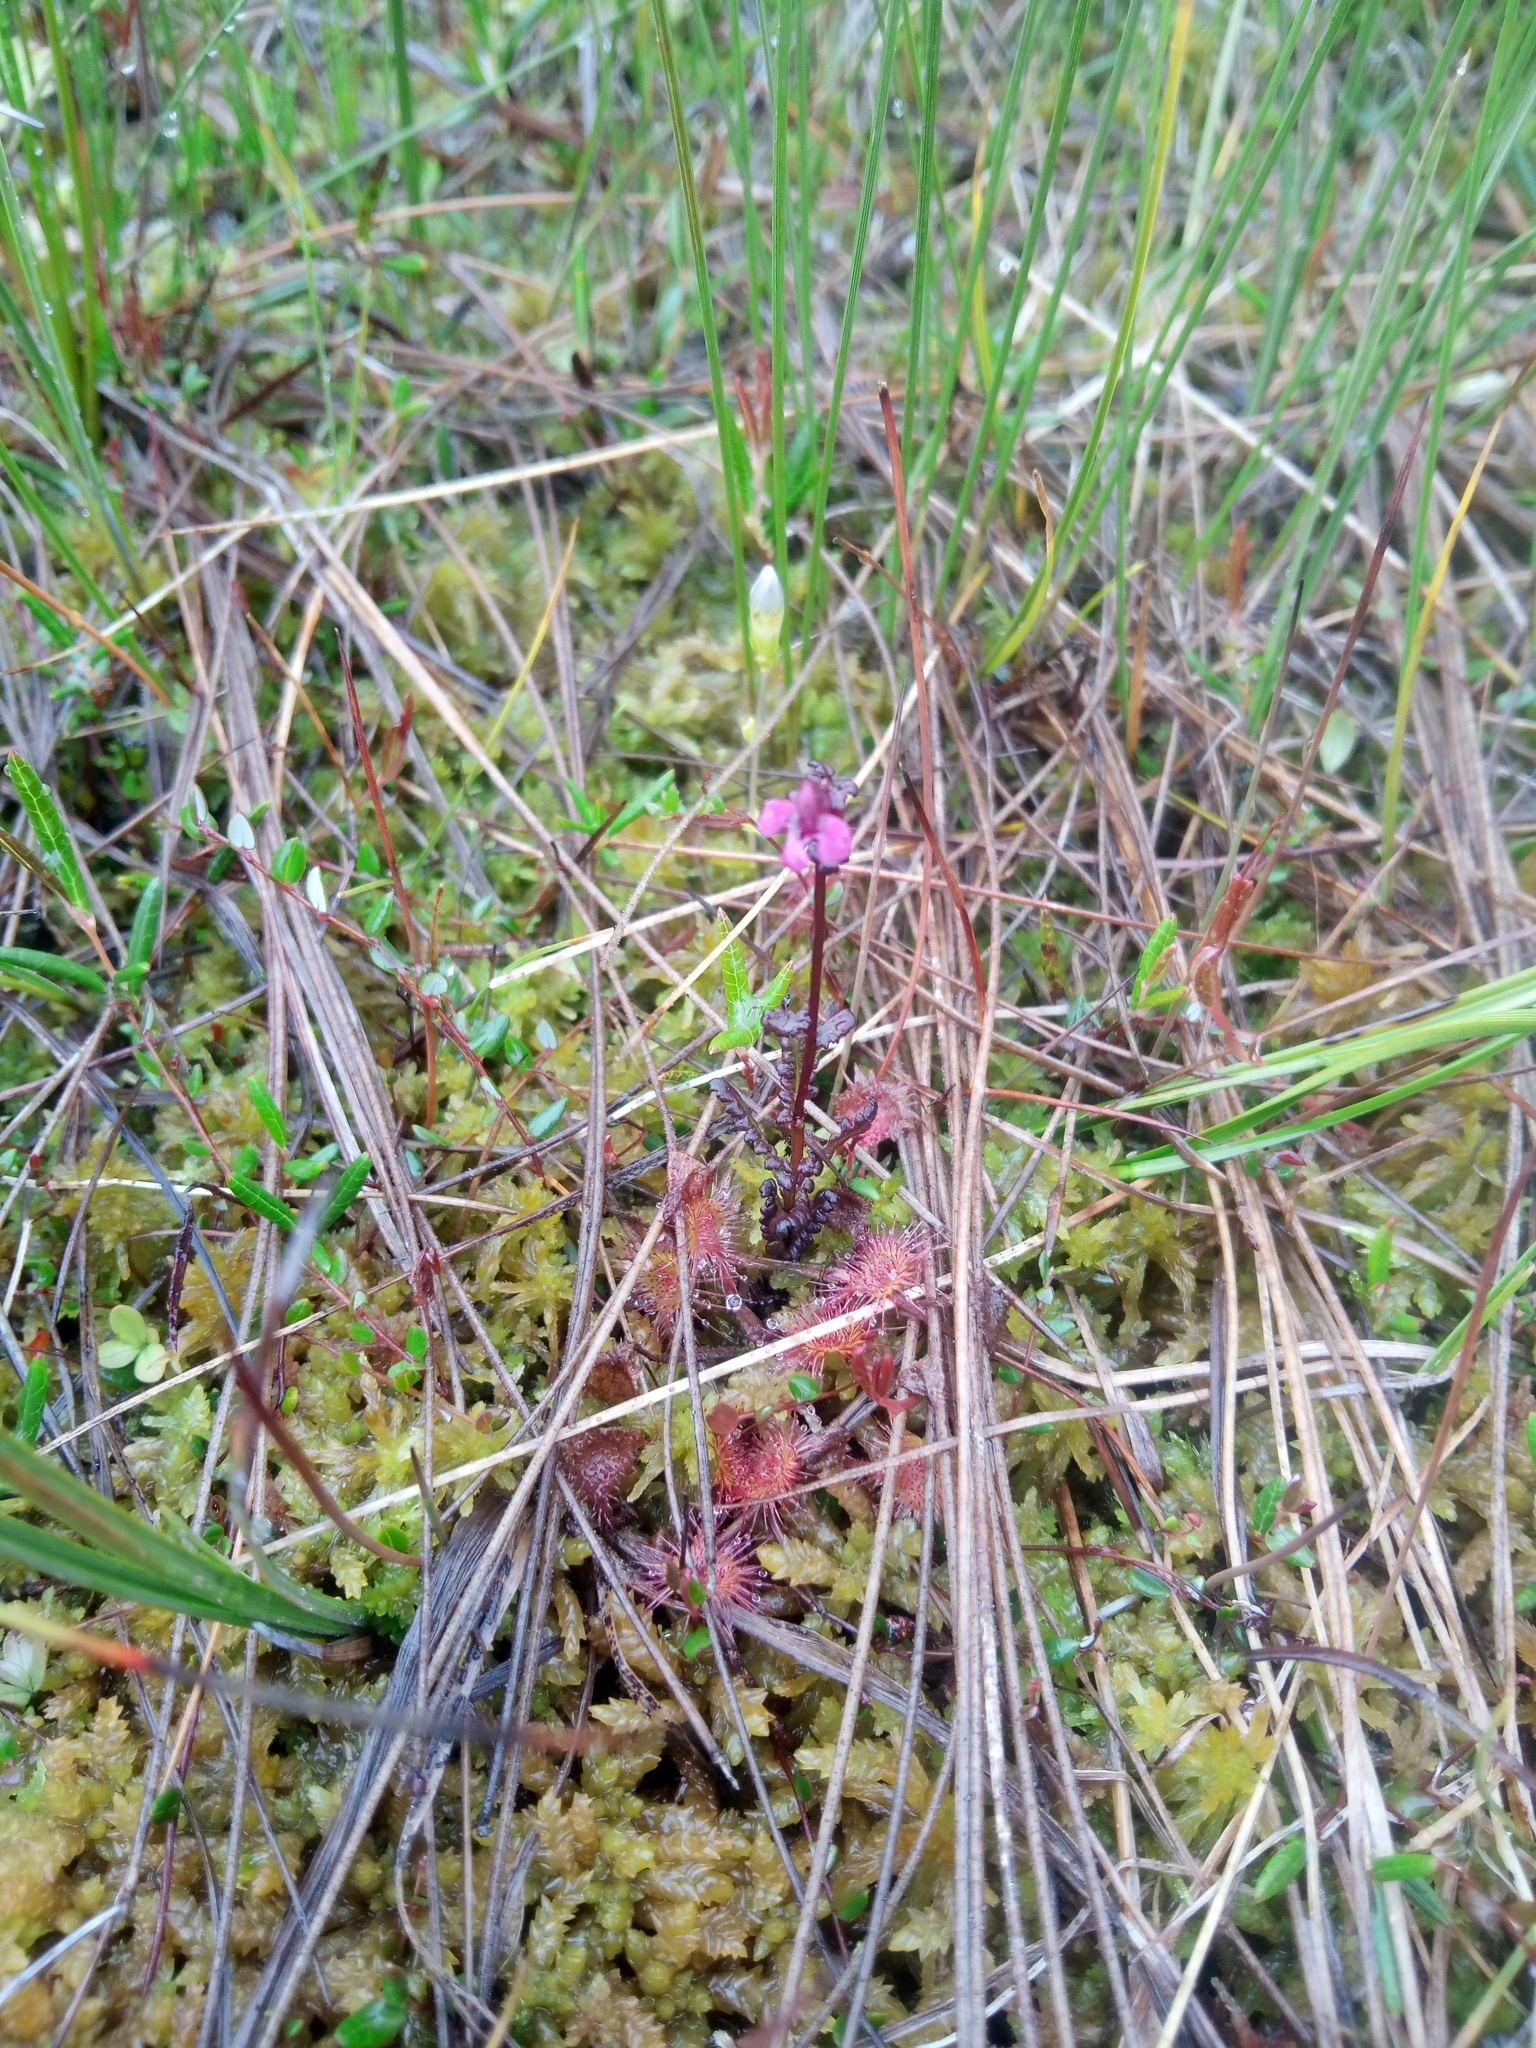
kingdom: Plantae
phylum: Tracheophyta
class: Magnoliopsida
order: Caryophyllales
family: Droseraceae
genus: Drosera
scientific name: Drosera rotundifolia
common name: Round-leaved sundew
